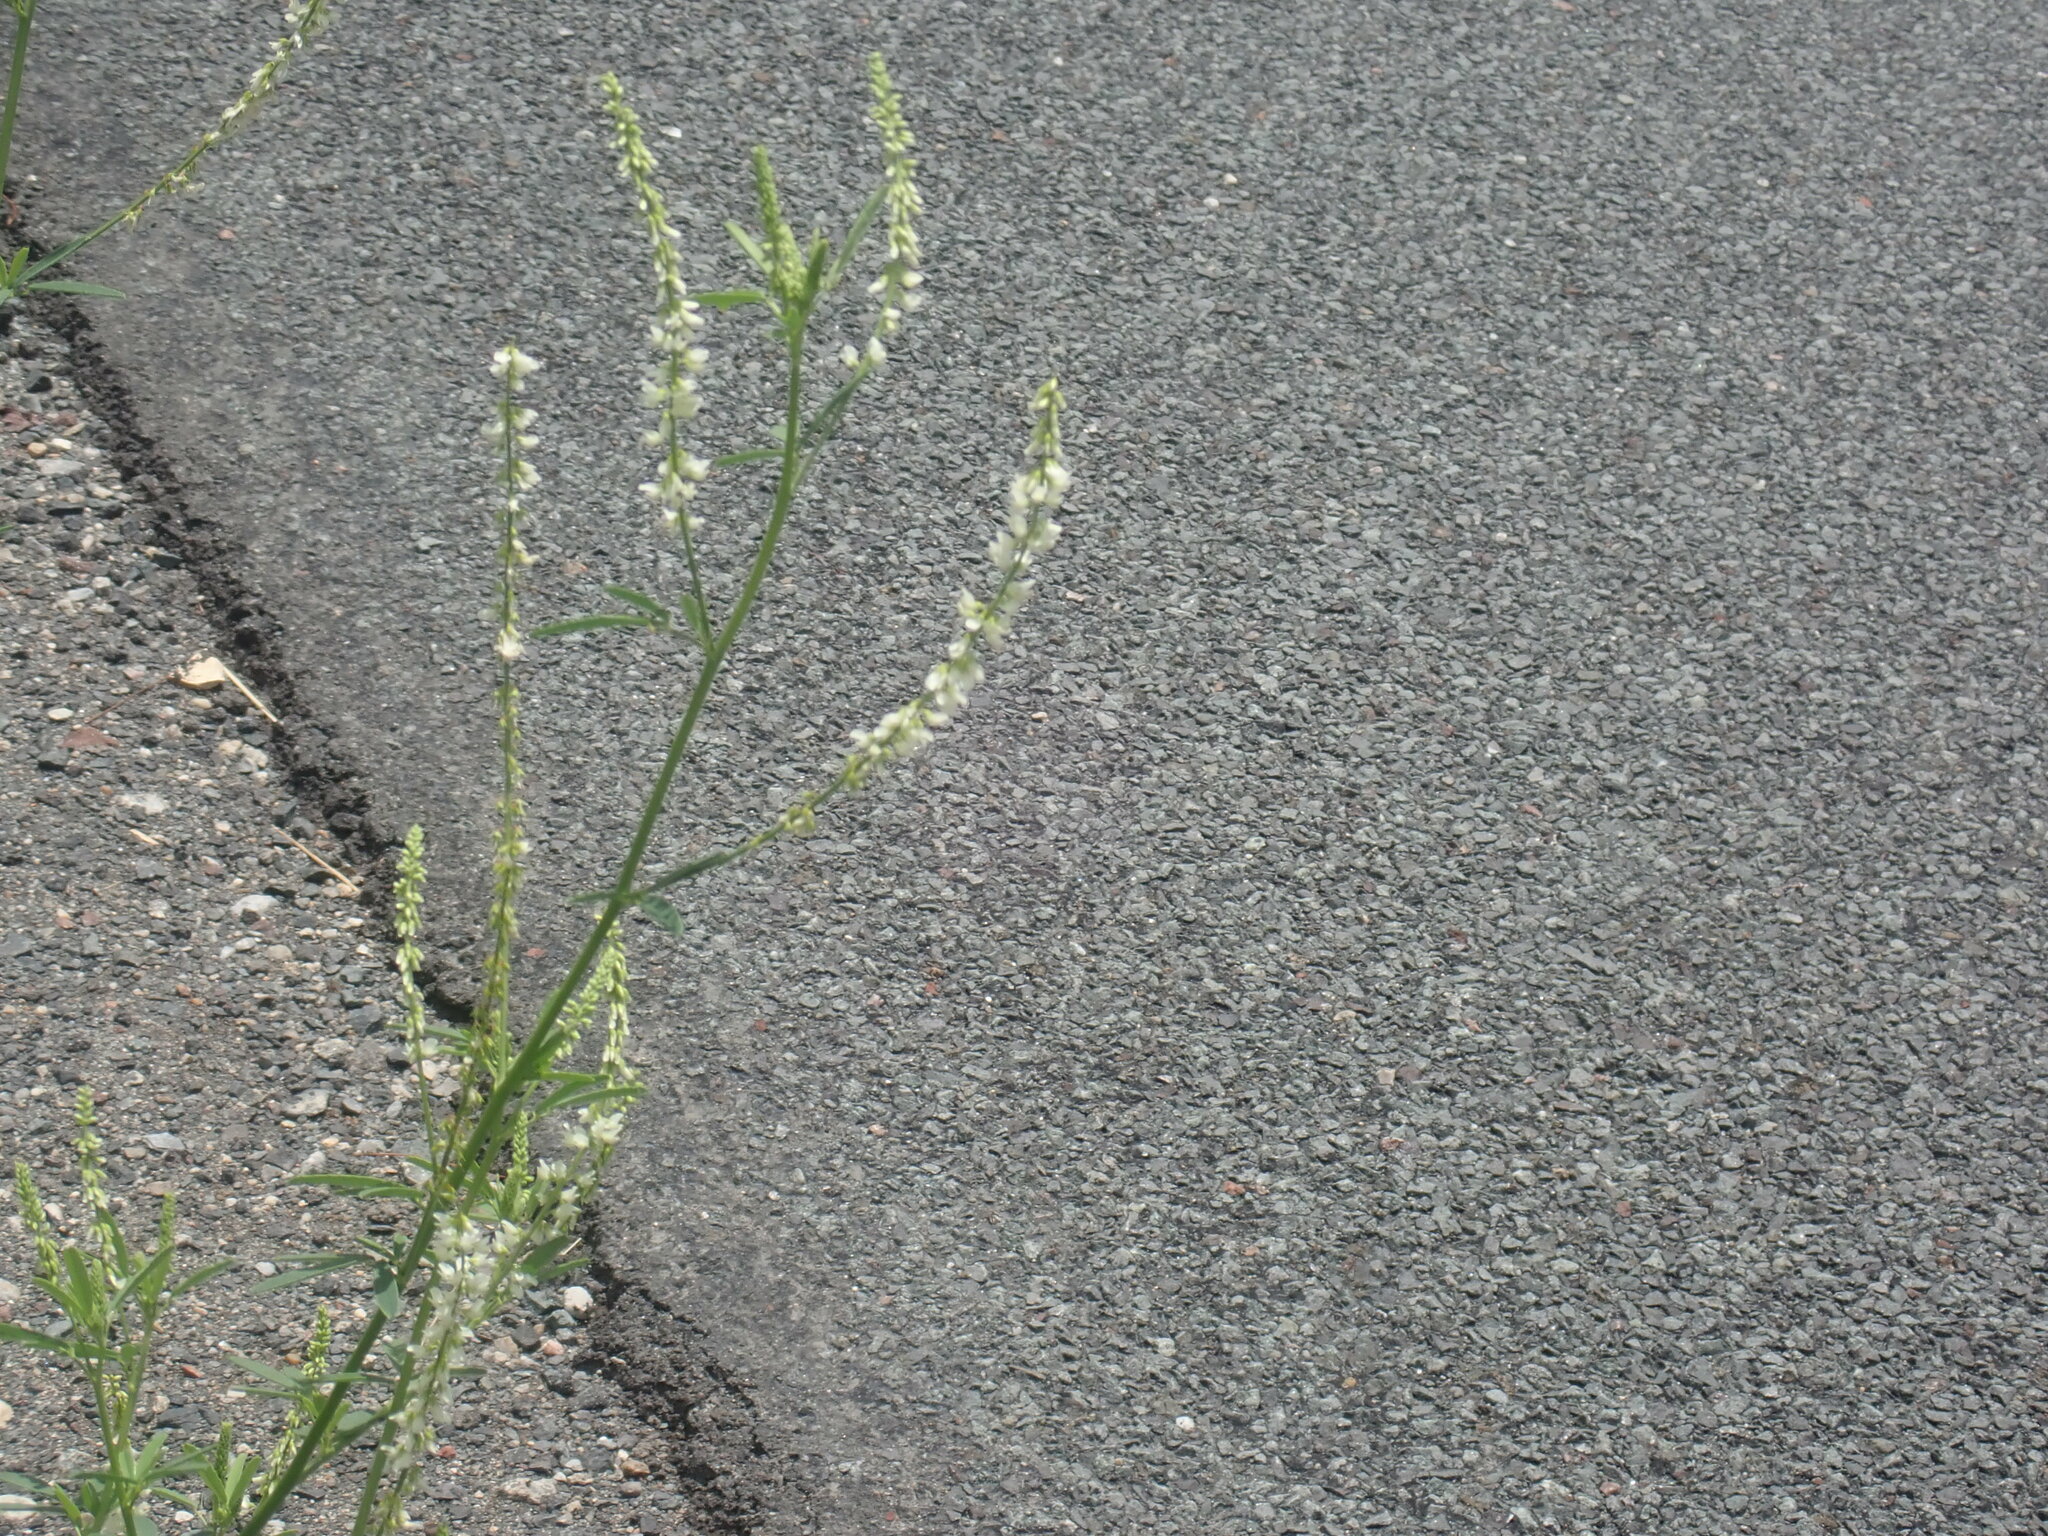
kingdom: Plantae
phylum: Tracheophyta
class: Magnoliopsida
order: Fabales
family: Fabaceae
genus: Melilotus
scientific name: Melilotus albus
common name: White melilot
